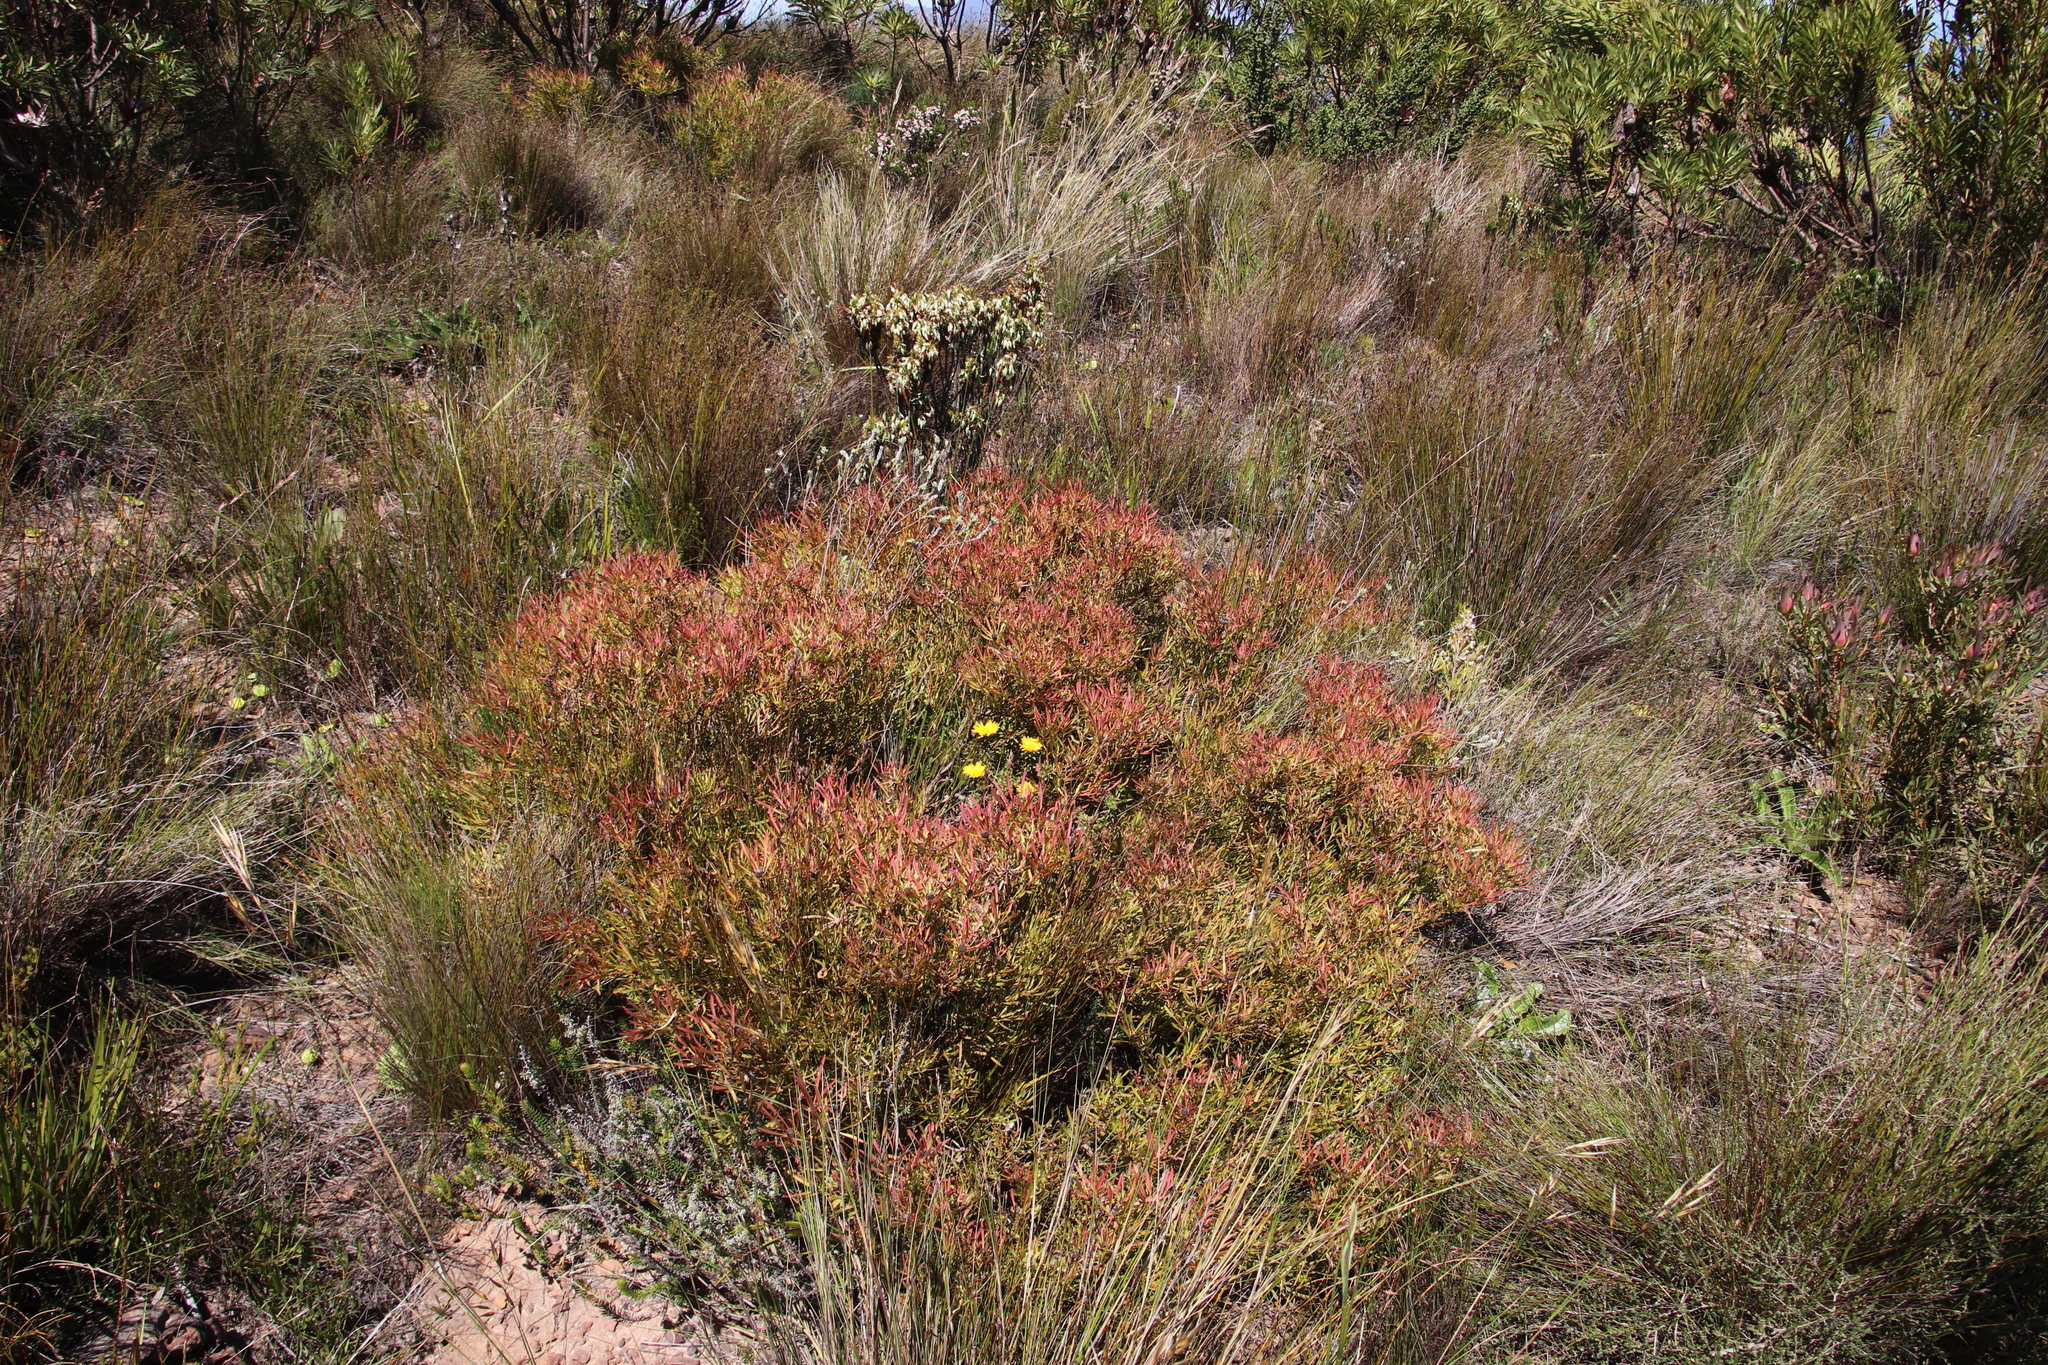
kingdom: Plantae
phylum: Tracheophyta
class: Magnoliopsida
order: Proteales
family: Proteaceae
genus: Leucadendron
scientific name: Leucadendron salignum
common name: Common sunshine conebush
